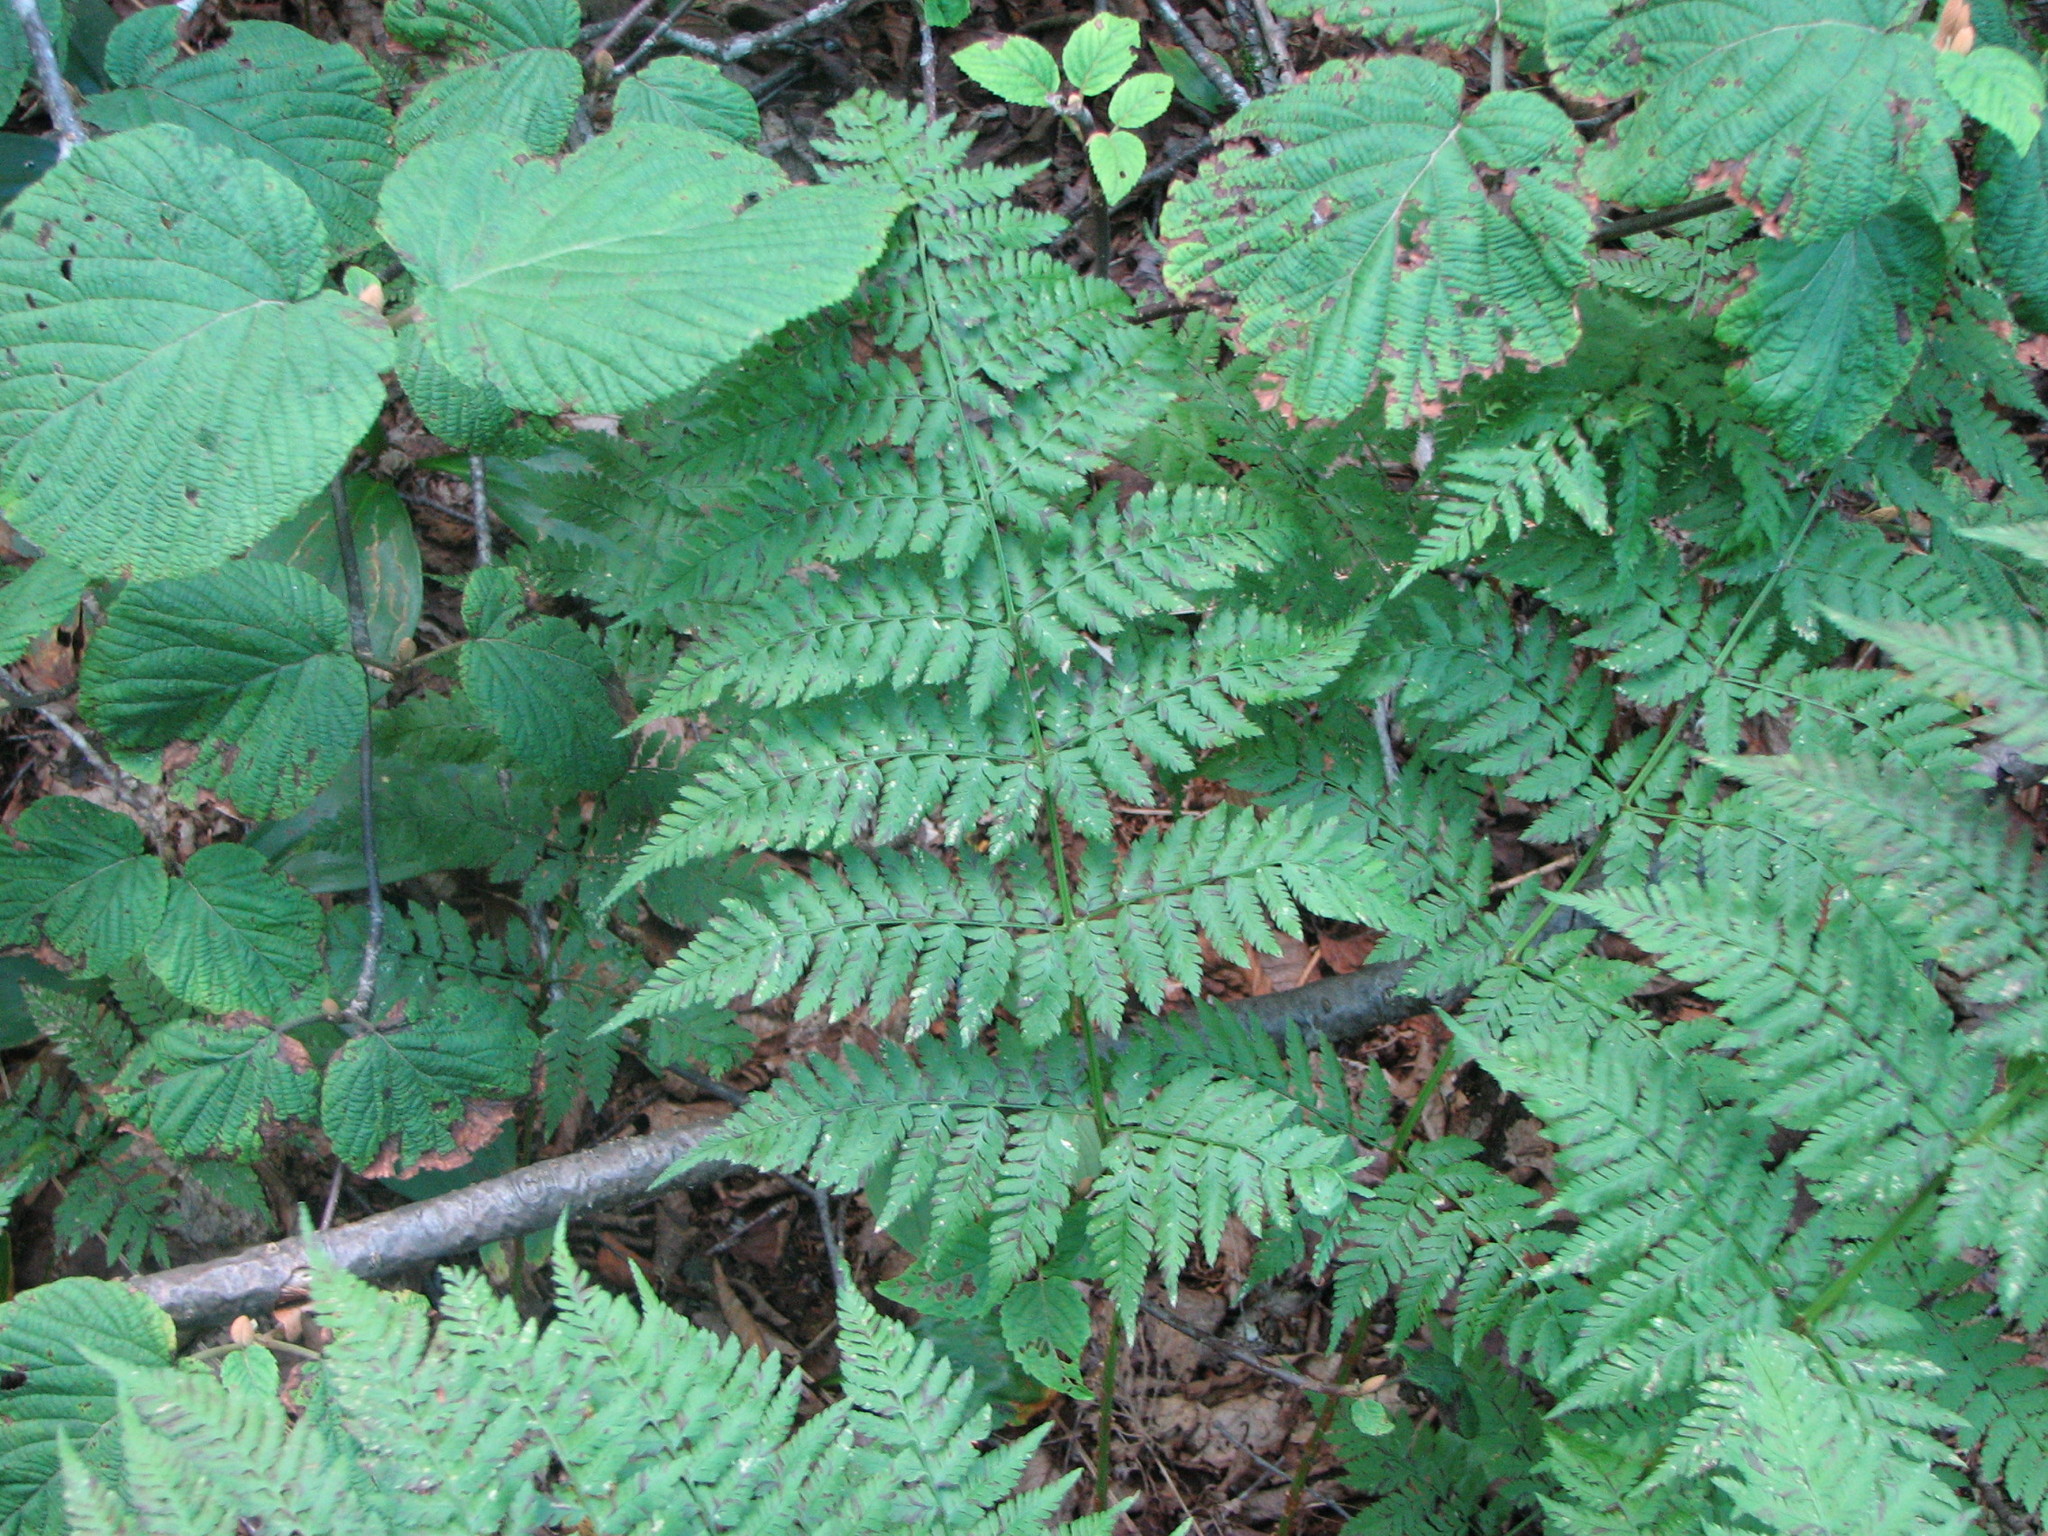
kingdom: Plantae
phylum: Tracheophyta
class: Polypodiopsida
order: Polypodiales
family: Dryopteridaceae
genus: Dryopteris
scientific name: Dryopteris campyloptera
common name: Mountain wood fern
